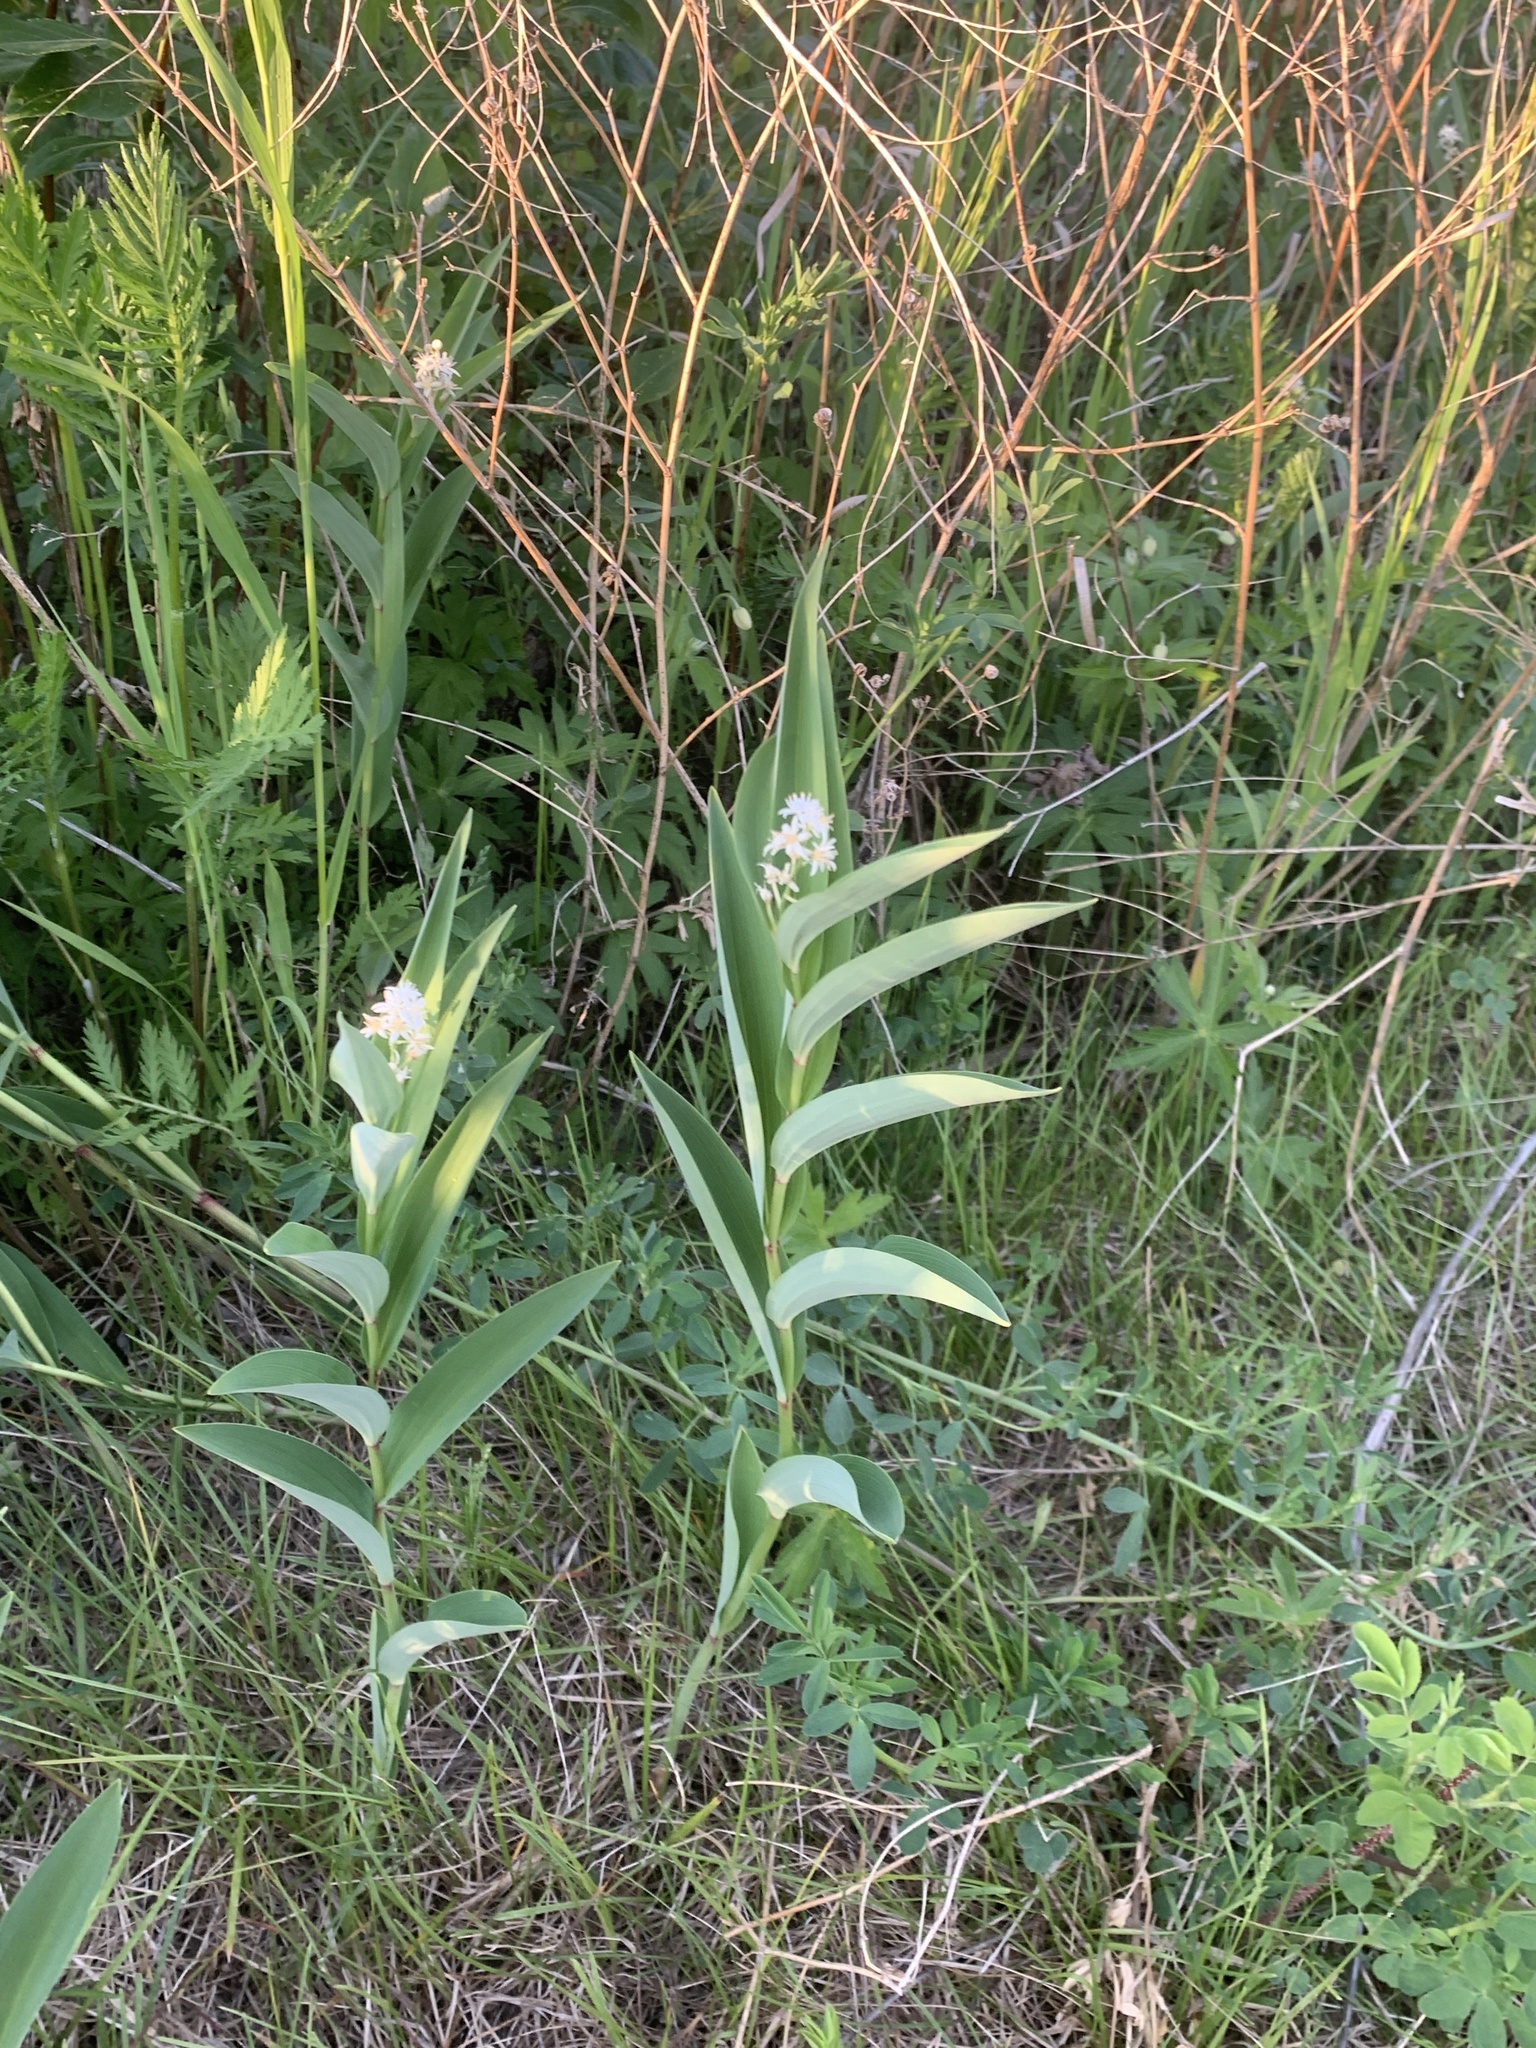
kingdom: Plantae
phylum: Tracheophyta
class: Liliopsida
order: Asparagales
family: Asparagaceae
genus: Maianthemum
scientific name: Maianthemum stellatum
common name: Little false solomon's seal
